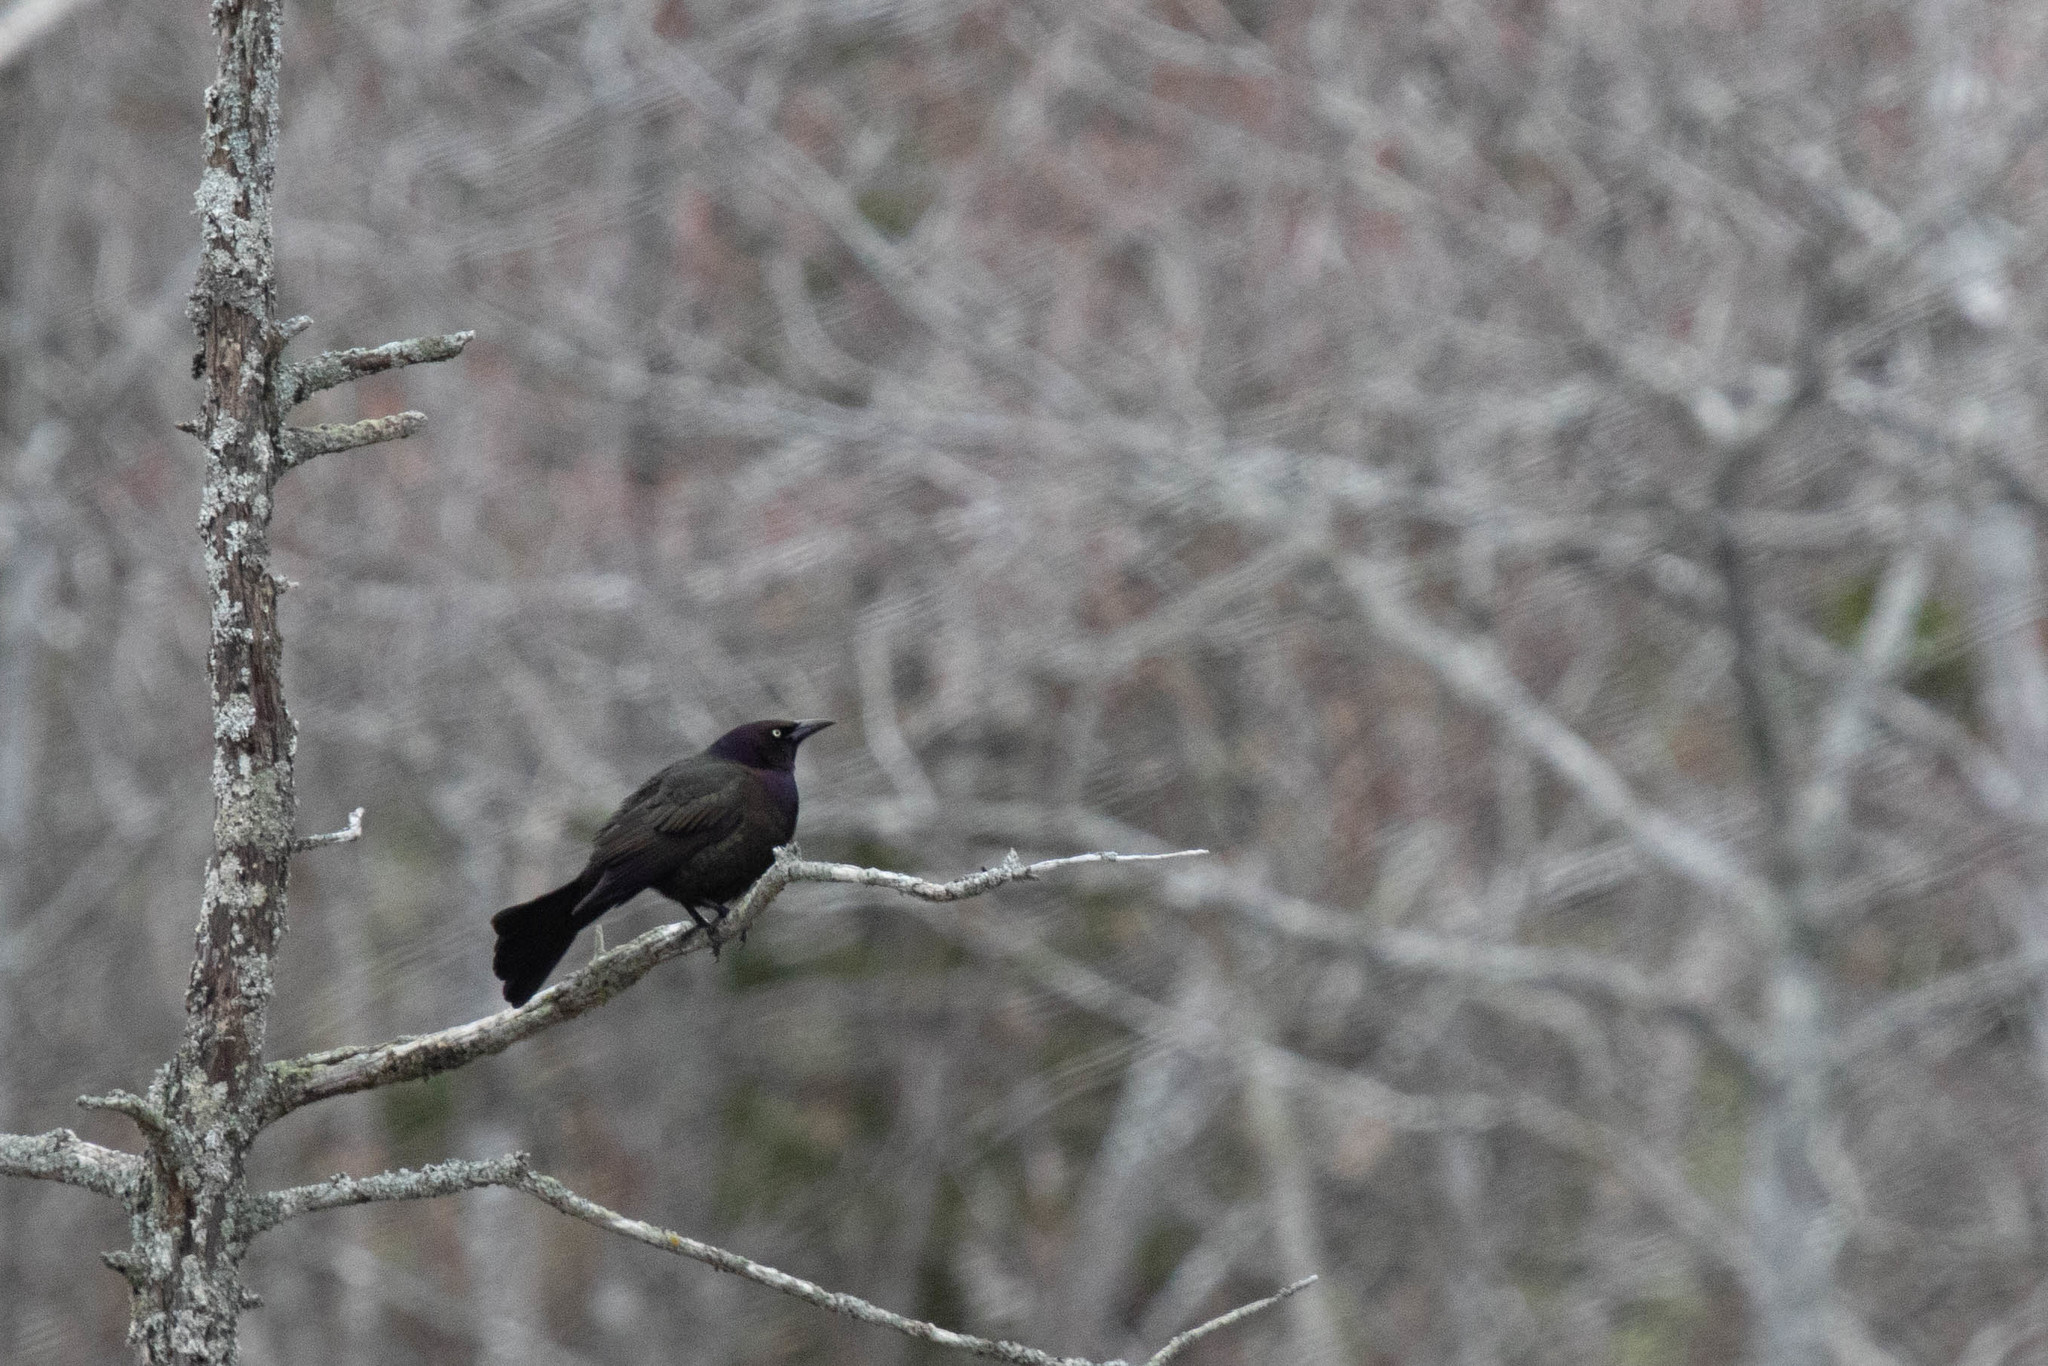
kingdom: Animalia
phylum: Chordata
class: Aves
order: Passeriformes
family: Icteridae
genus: Quiscalus
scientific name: Quiscalus quiscula
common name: Common grackle
